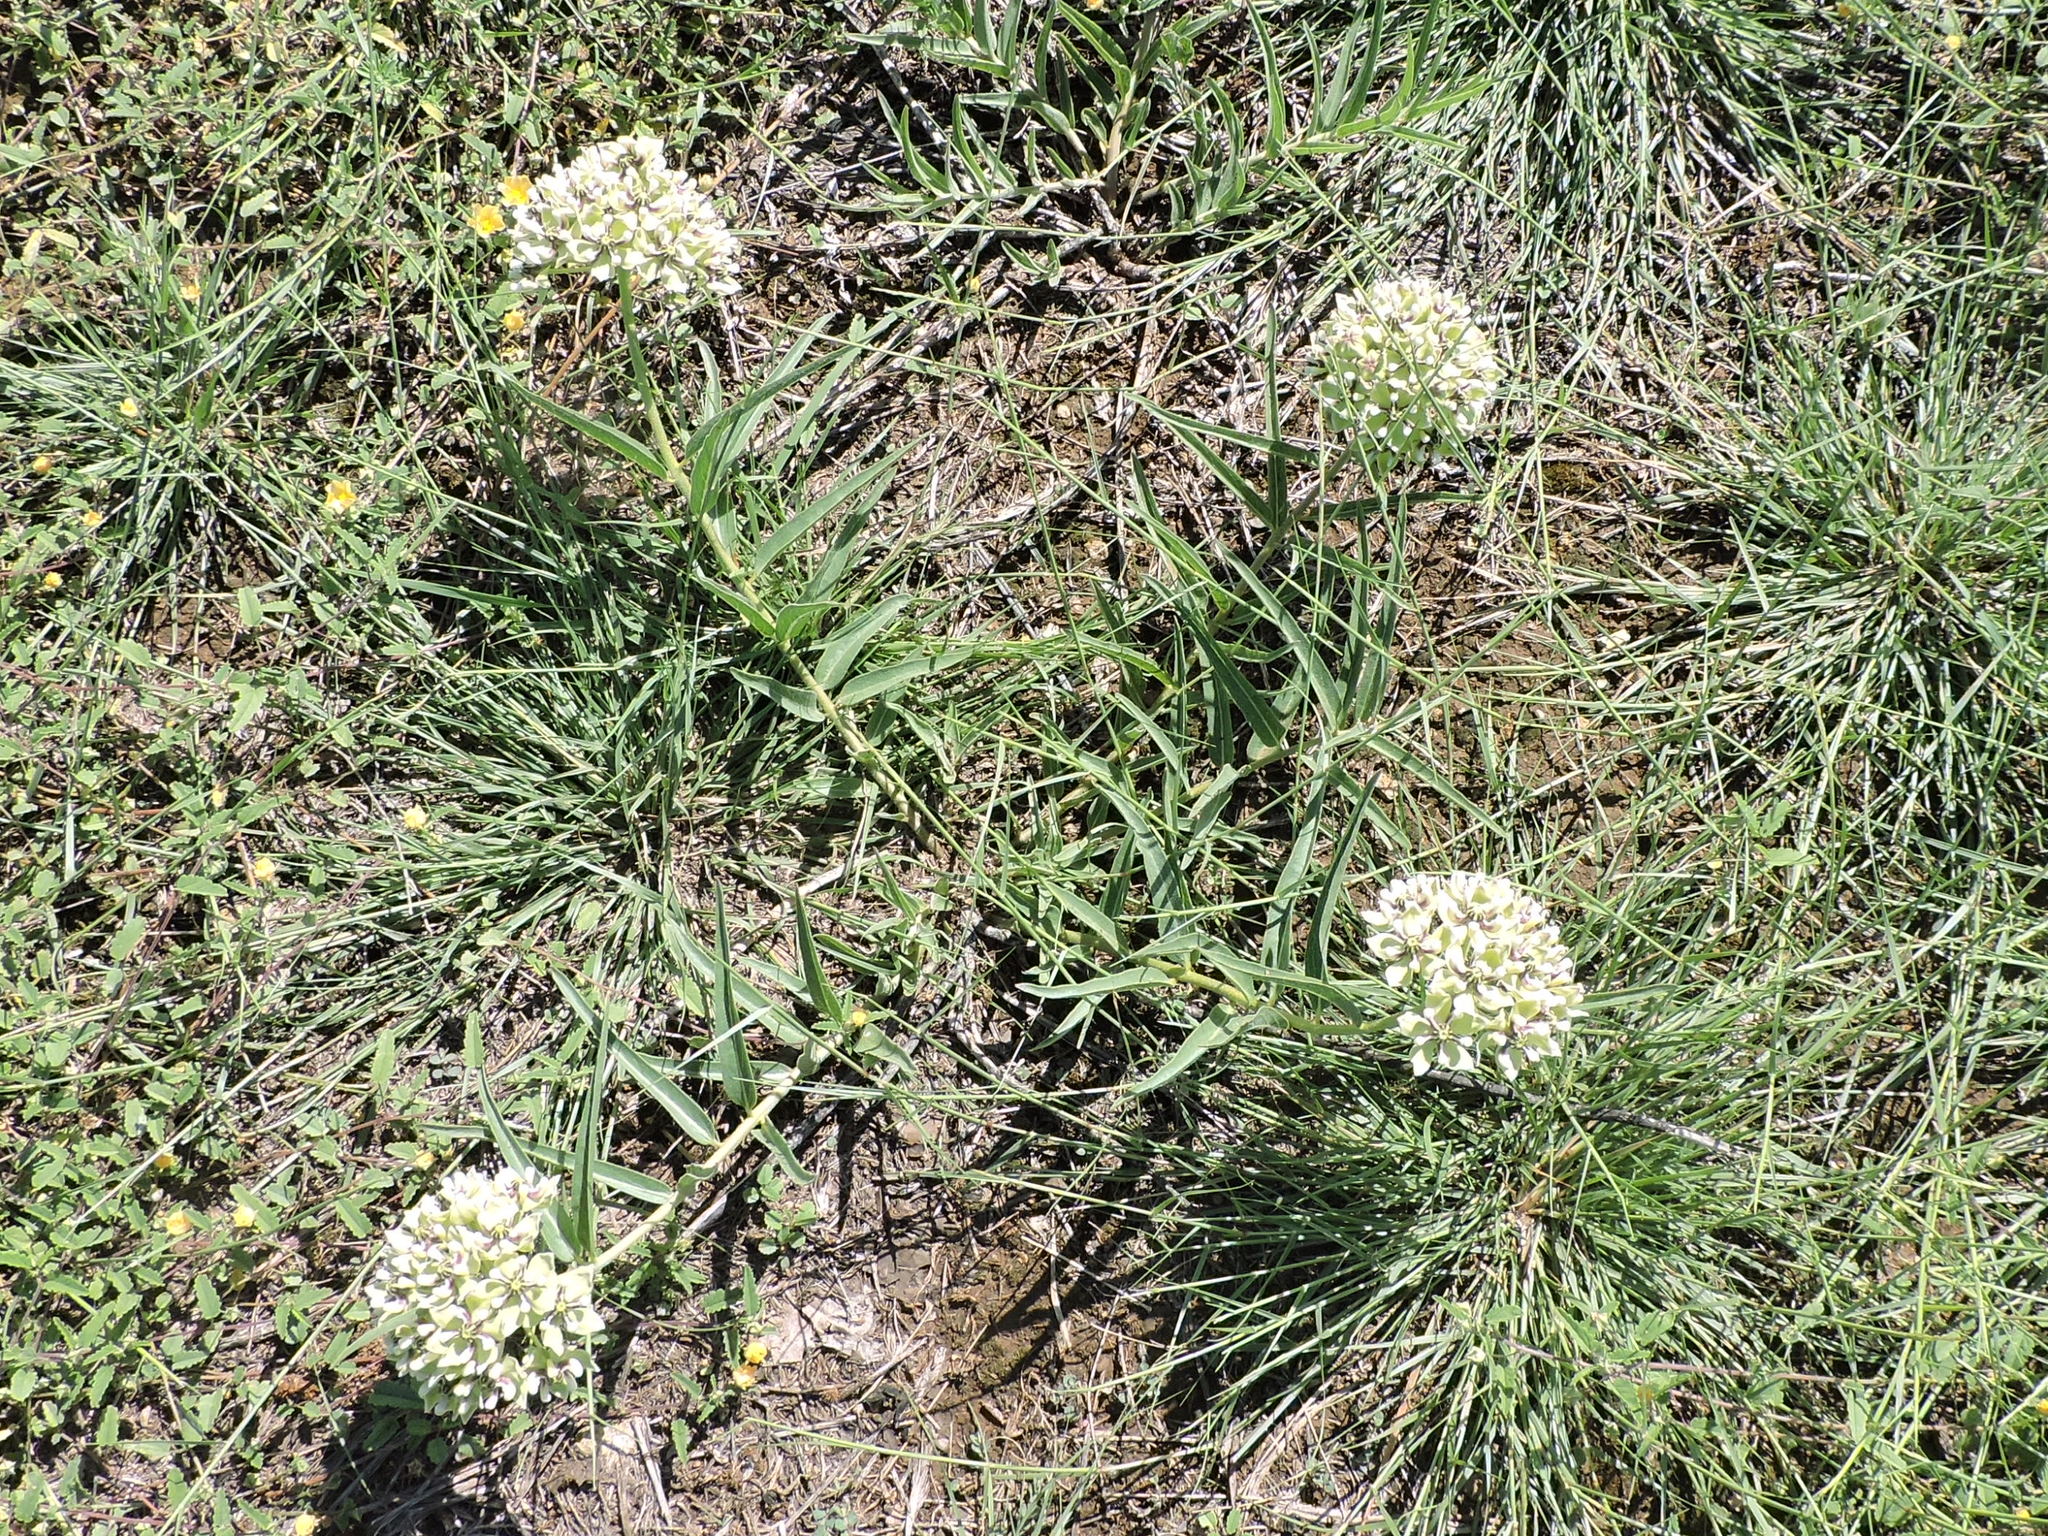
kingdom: Plantae
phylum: Tracheophyta
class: Magnoliopsida
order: Gentianales
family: Apocynaceae
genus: Asclepias
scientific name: Asclepias asperula
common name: Antelope horns
